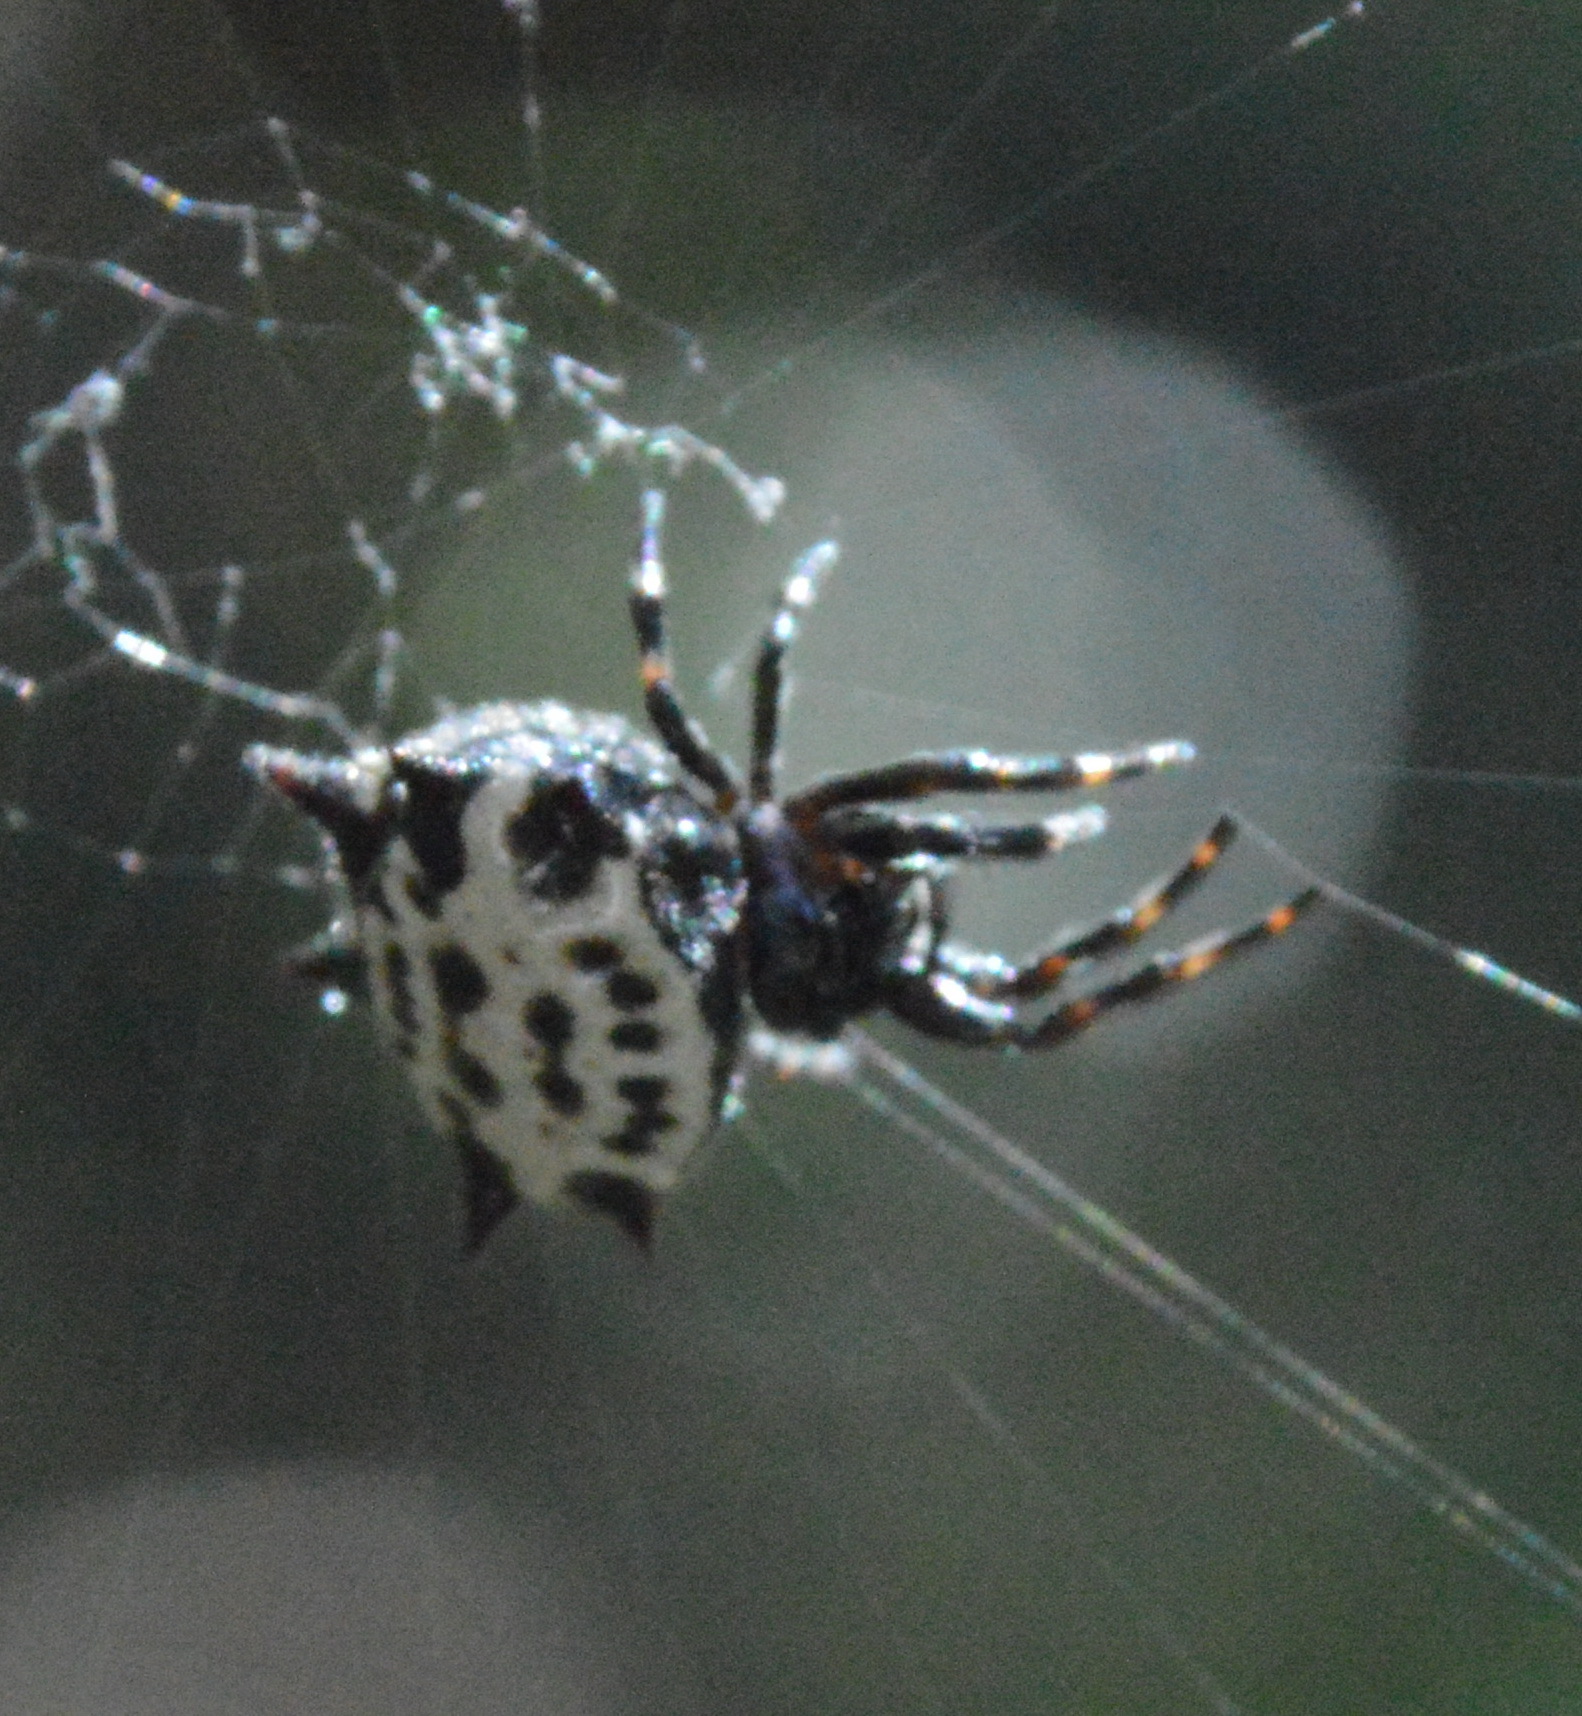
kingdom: Animalia
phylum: Arthropoda
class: Arachnida
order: Araneae
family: Araneidae
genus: Gasteracantha
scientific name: Gasteracantha cancriformis
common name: Orb weavers
